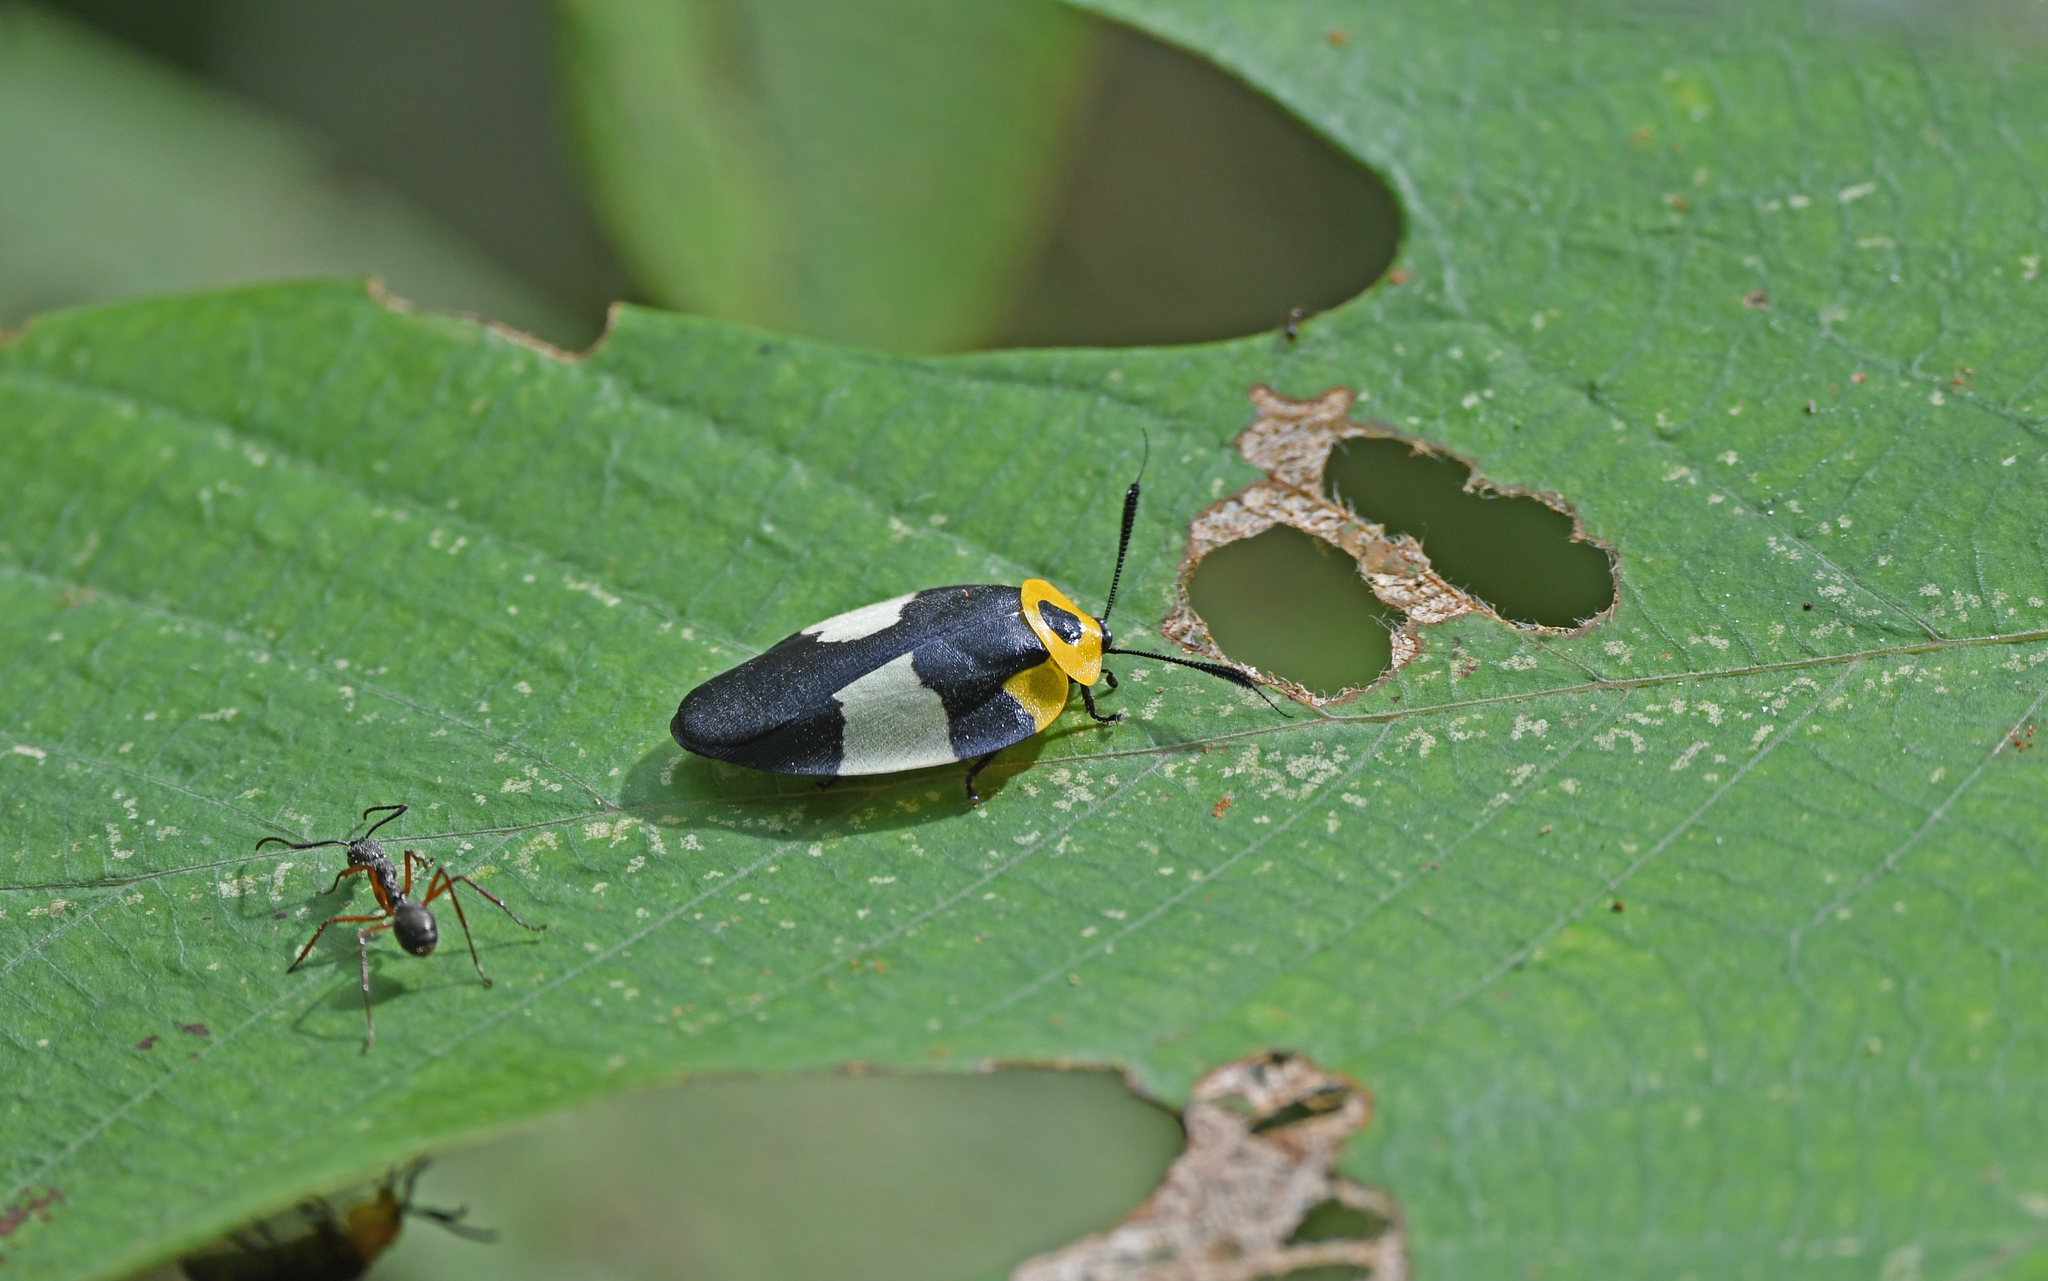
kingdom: Animalia
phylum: Arthropoda
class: Insecta
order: Blattodea
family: Ectobiidae
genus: Eushelfordia
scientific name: Eushelfordia pica
